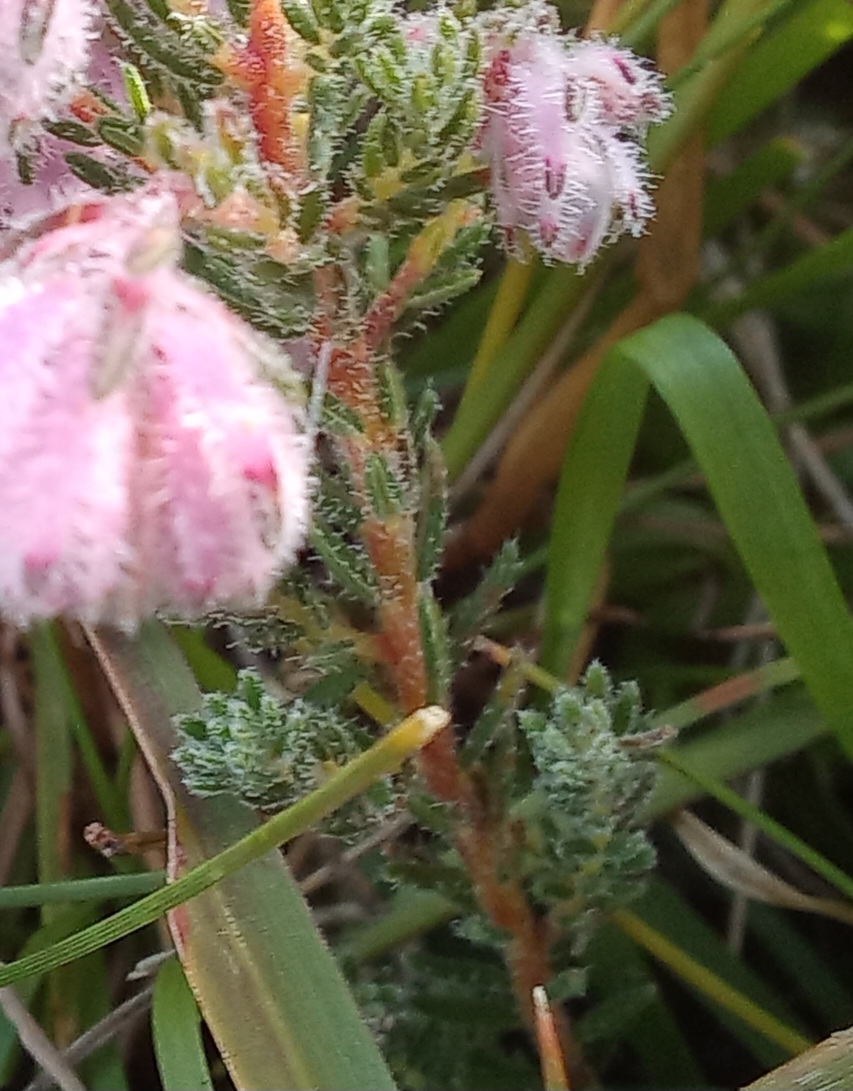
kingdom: Plantae
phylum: Tracheophyta
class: Magnoliopsida
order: Ericales
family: Ericaceae
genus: Erica
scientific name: Erica cooperi
